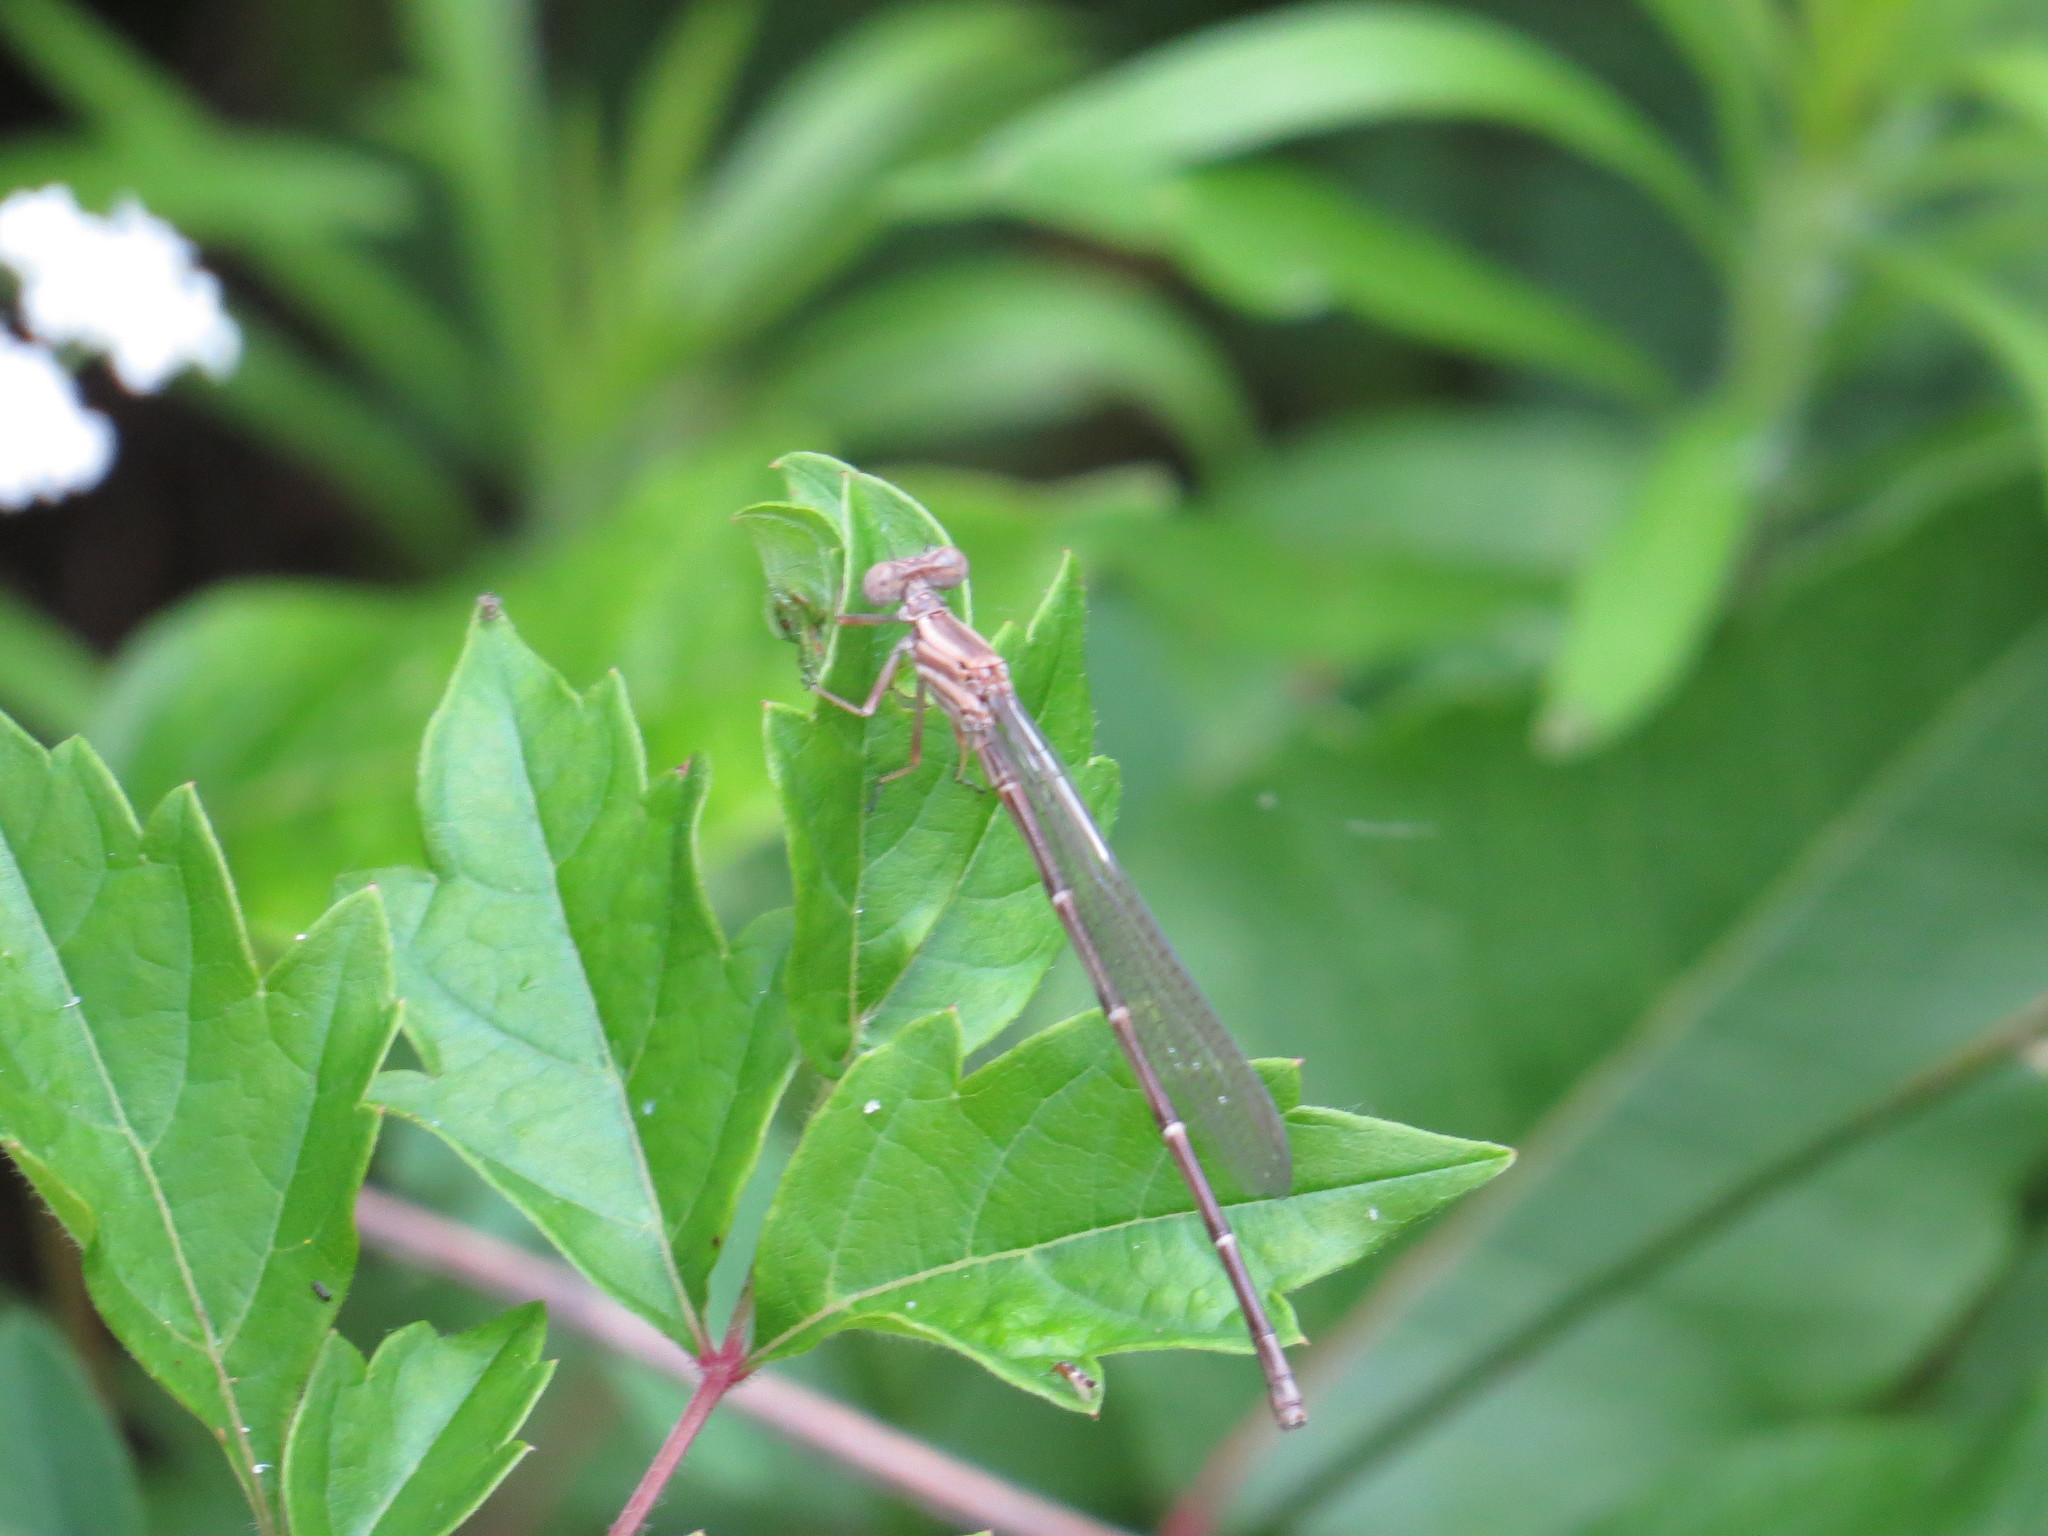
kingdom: Animalia
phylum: Arthropoda
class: Insecta
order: Odonata
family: Coenagrionidae
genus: Argia
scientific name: Argia moesta
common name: Powdered dancer
